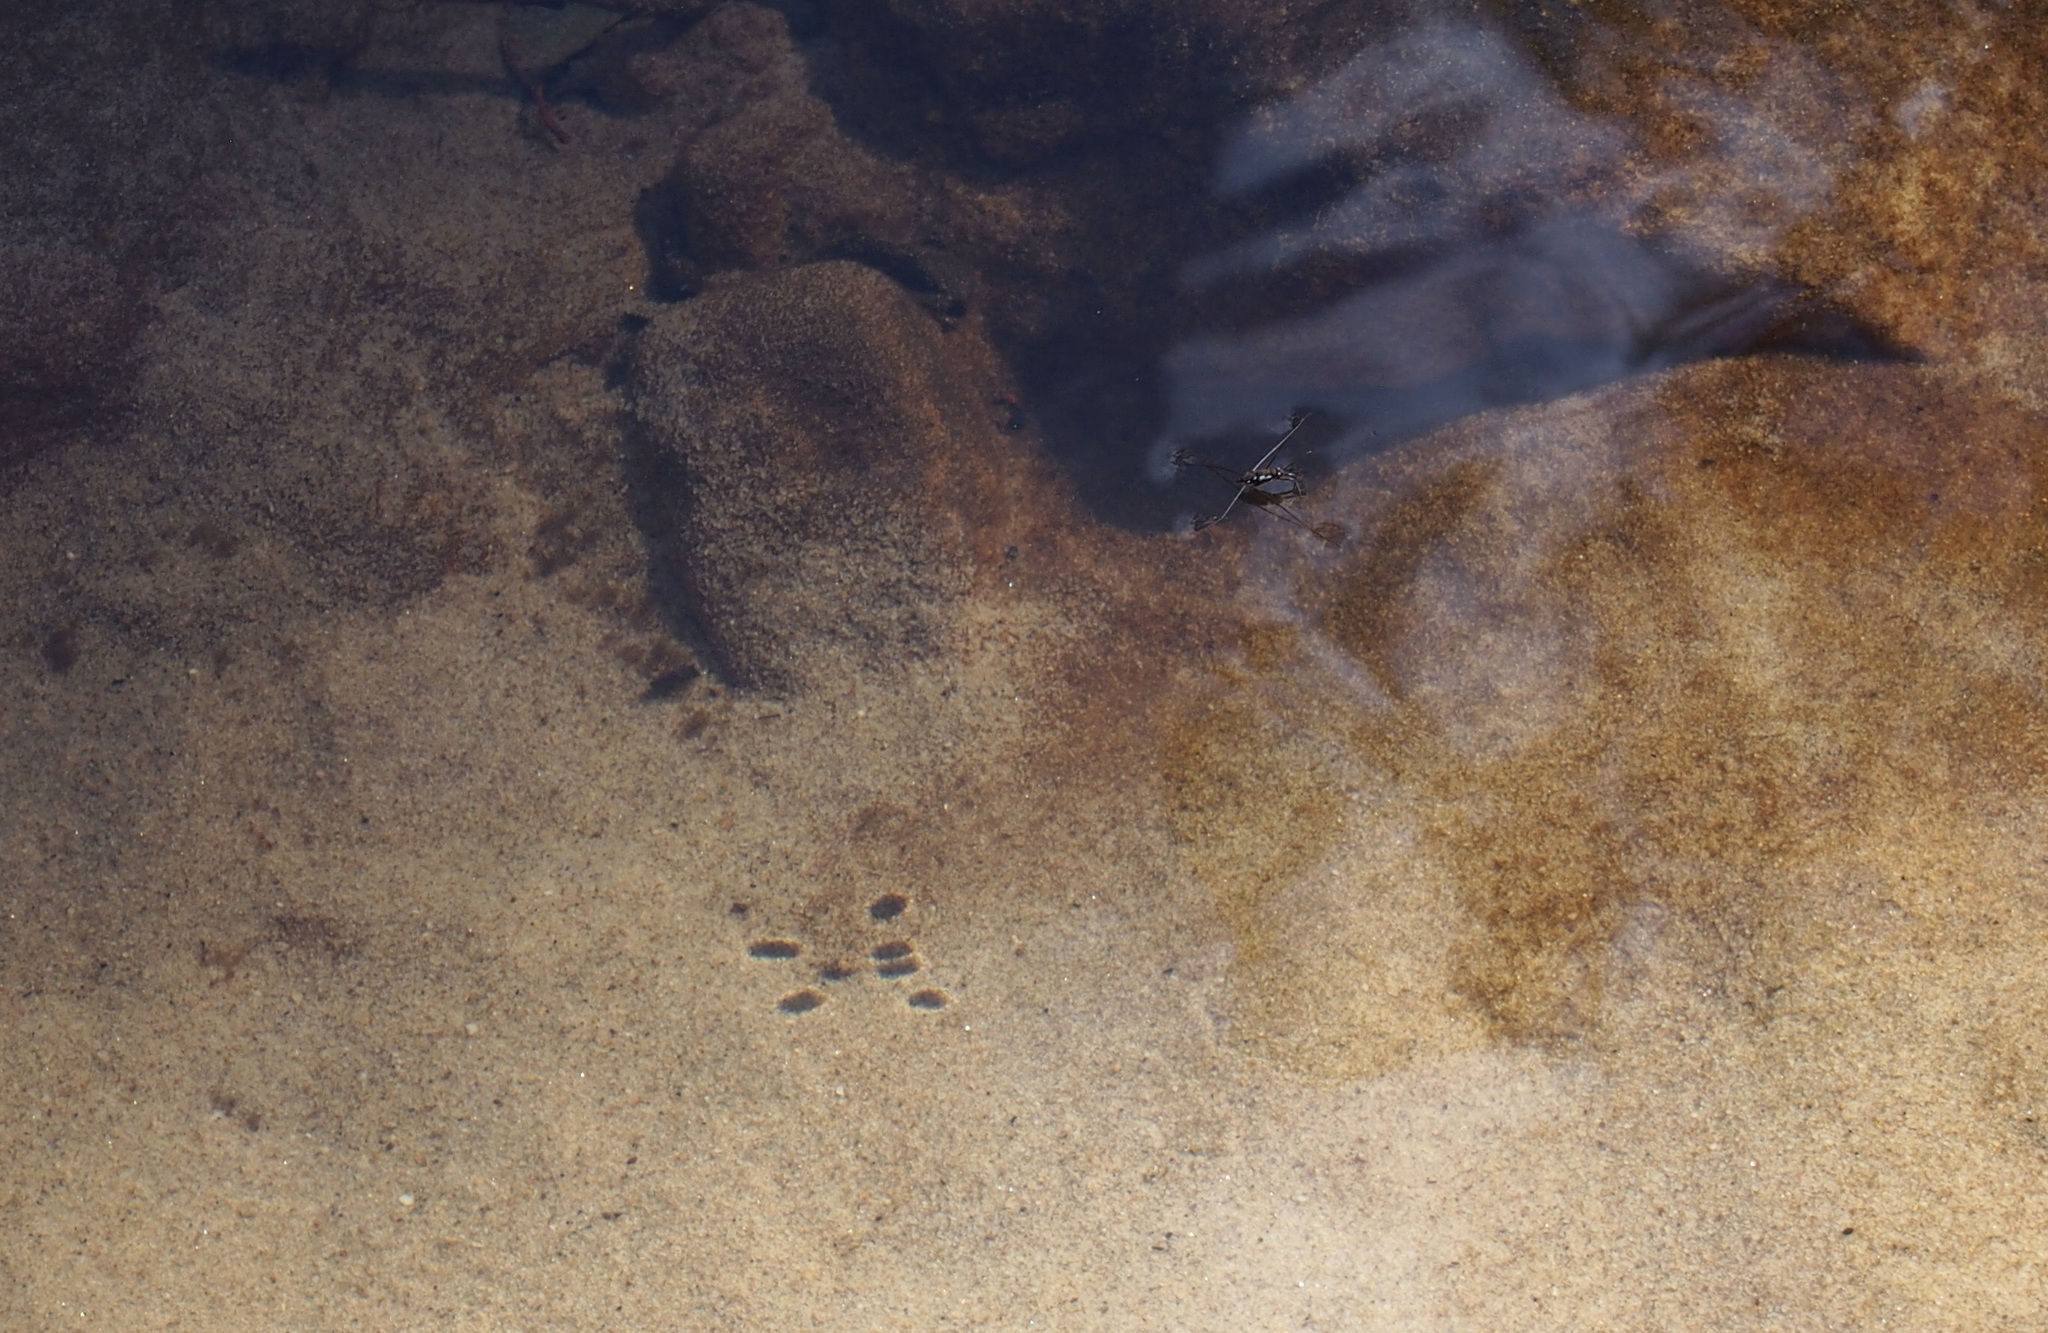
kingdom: Animalia
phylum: Arthropoda
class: Insecta
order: Hemiptera
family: Gerridae
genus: Tenagogerris
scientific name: Tenagogerris euphrosyne
